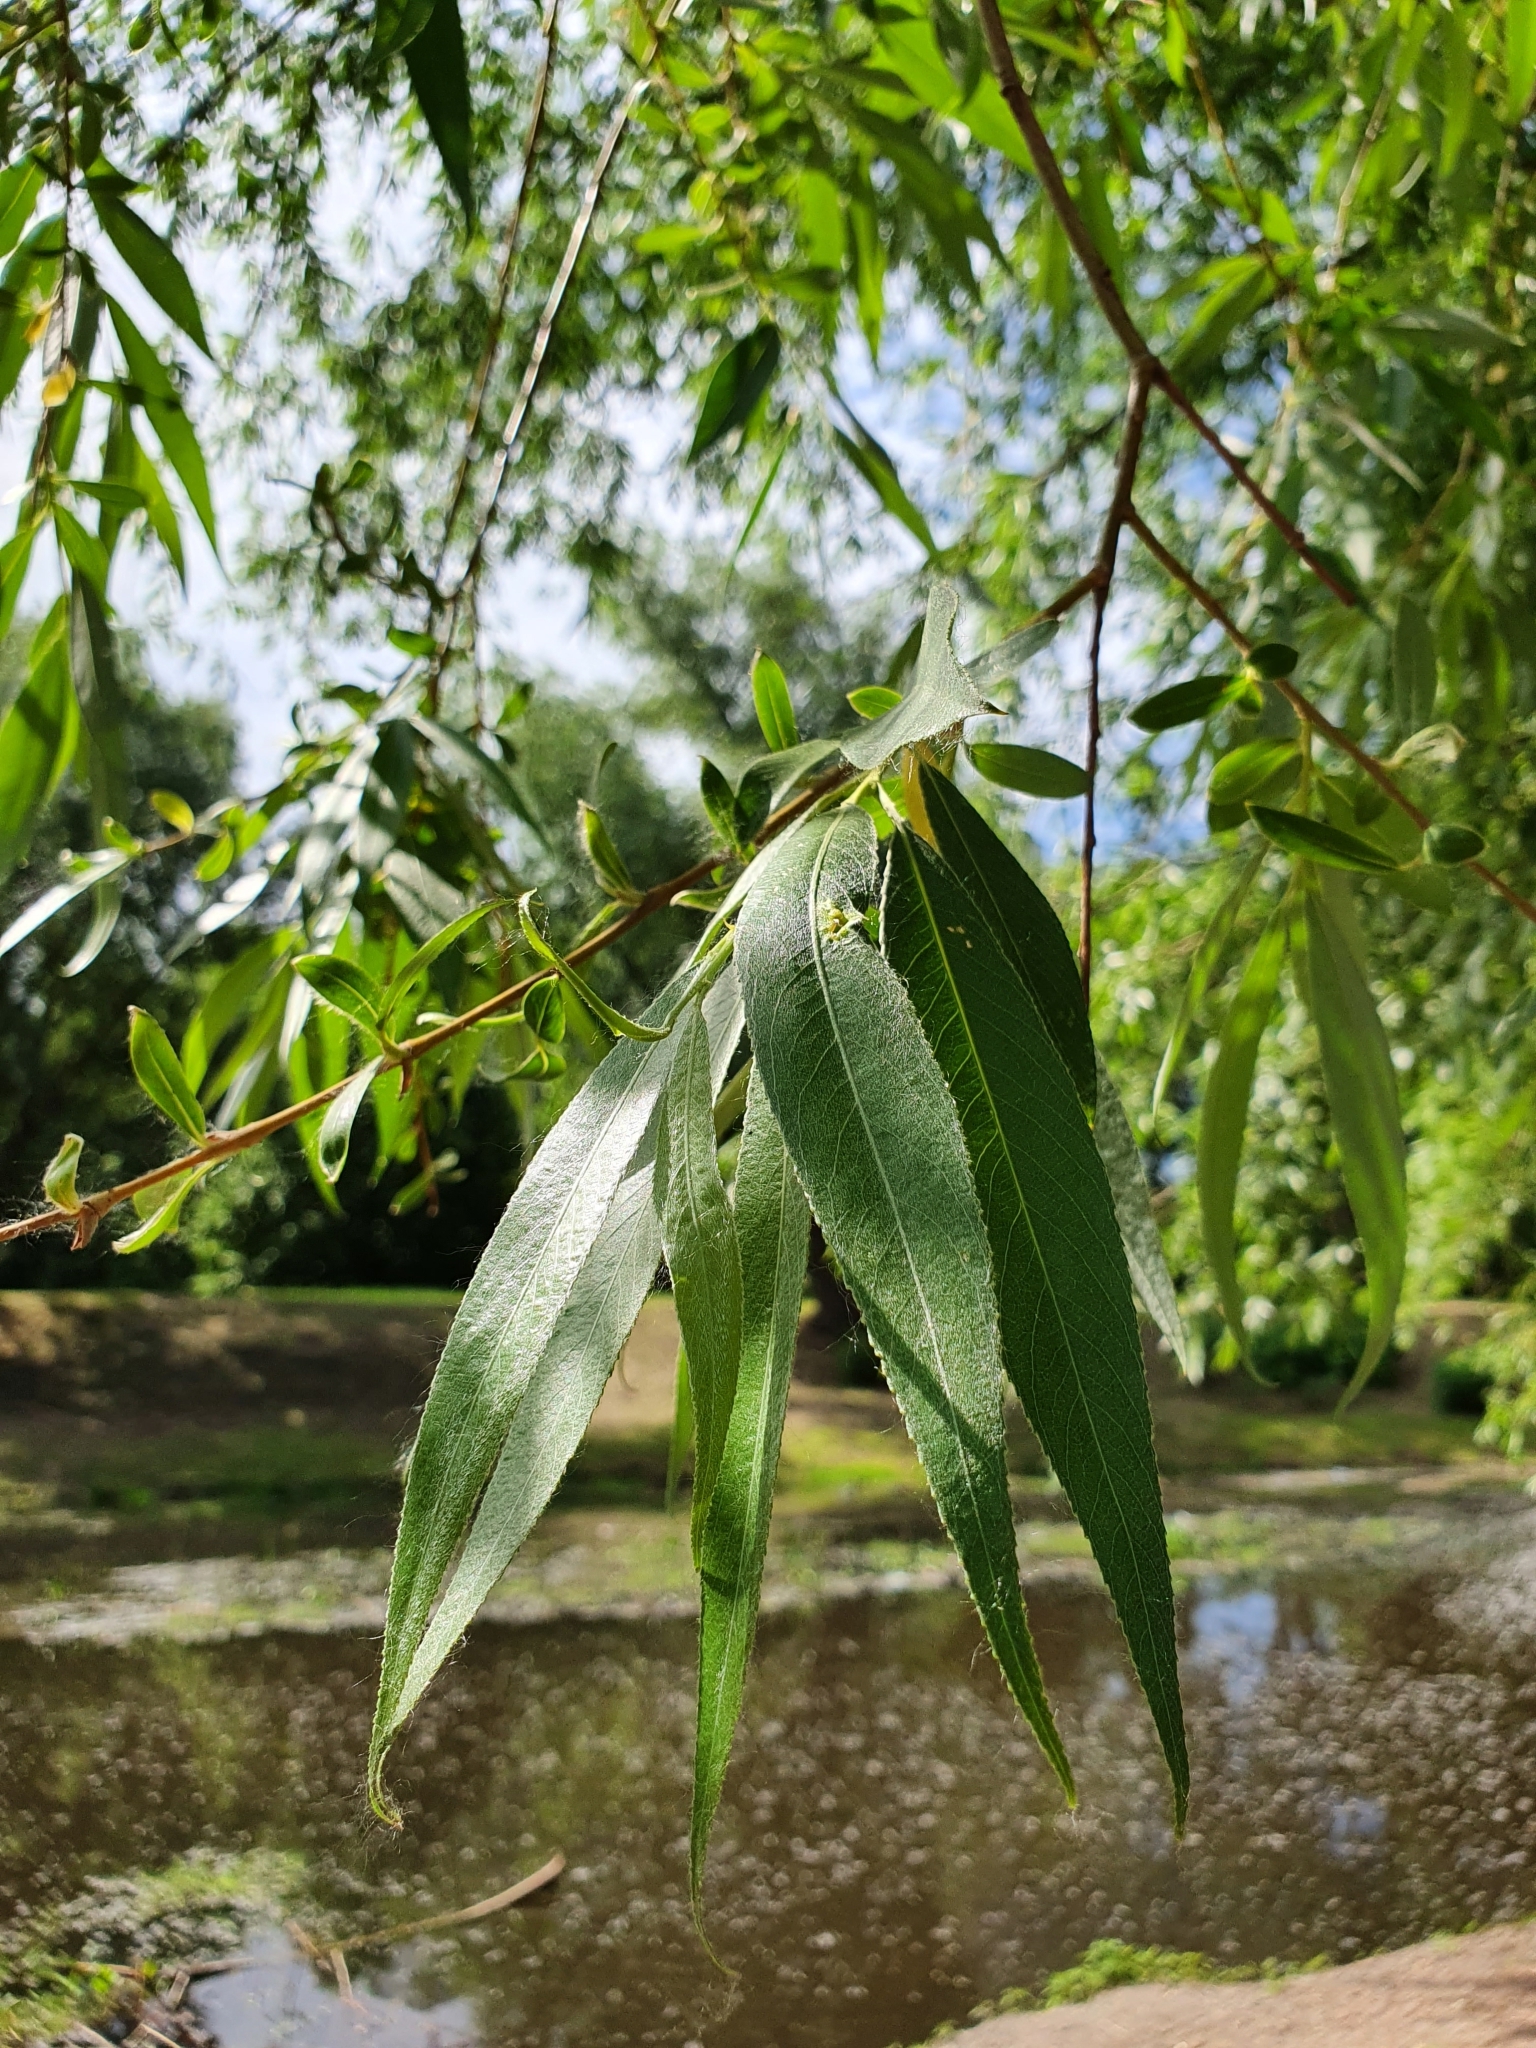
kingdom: Plantae
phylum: Tracheophyta
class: Magnoliopsida
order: Malpighiales
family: Salicaceae
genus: Salix
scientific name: Salix alba
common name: White willow
